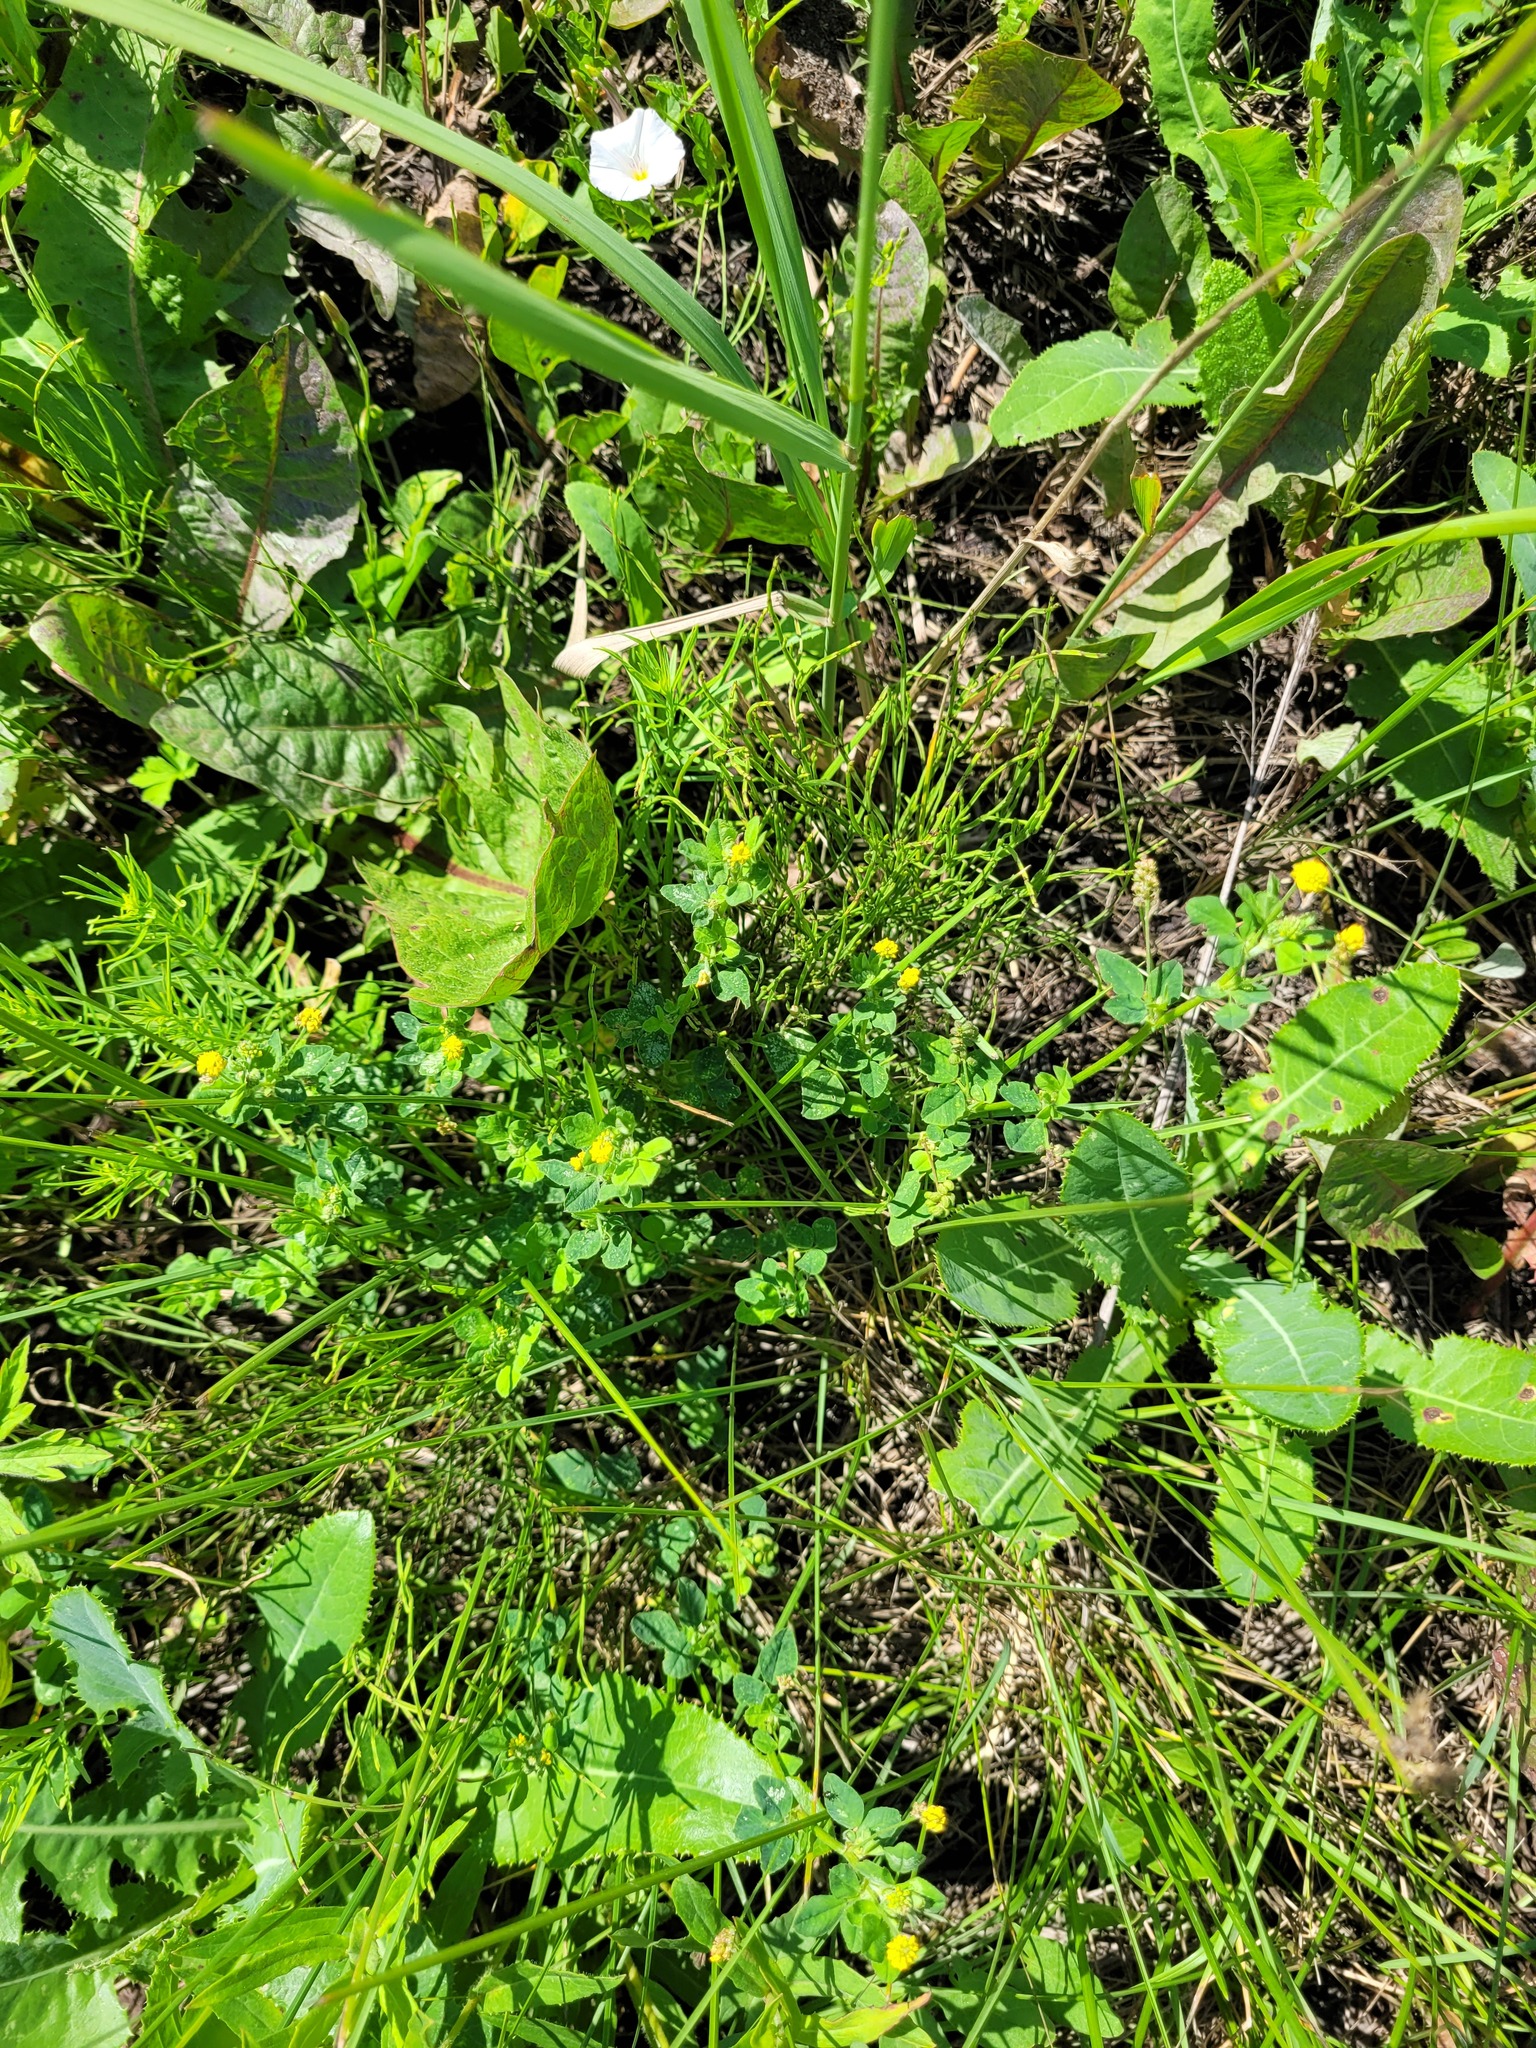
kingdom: Plantae
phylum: Tracheophyta
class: Magnoliopsida
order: Fabales
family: Fabaceae
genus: Medicago
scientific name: Medicago lupulina
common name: Black medick
